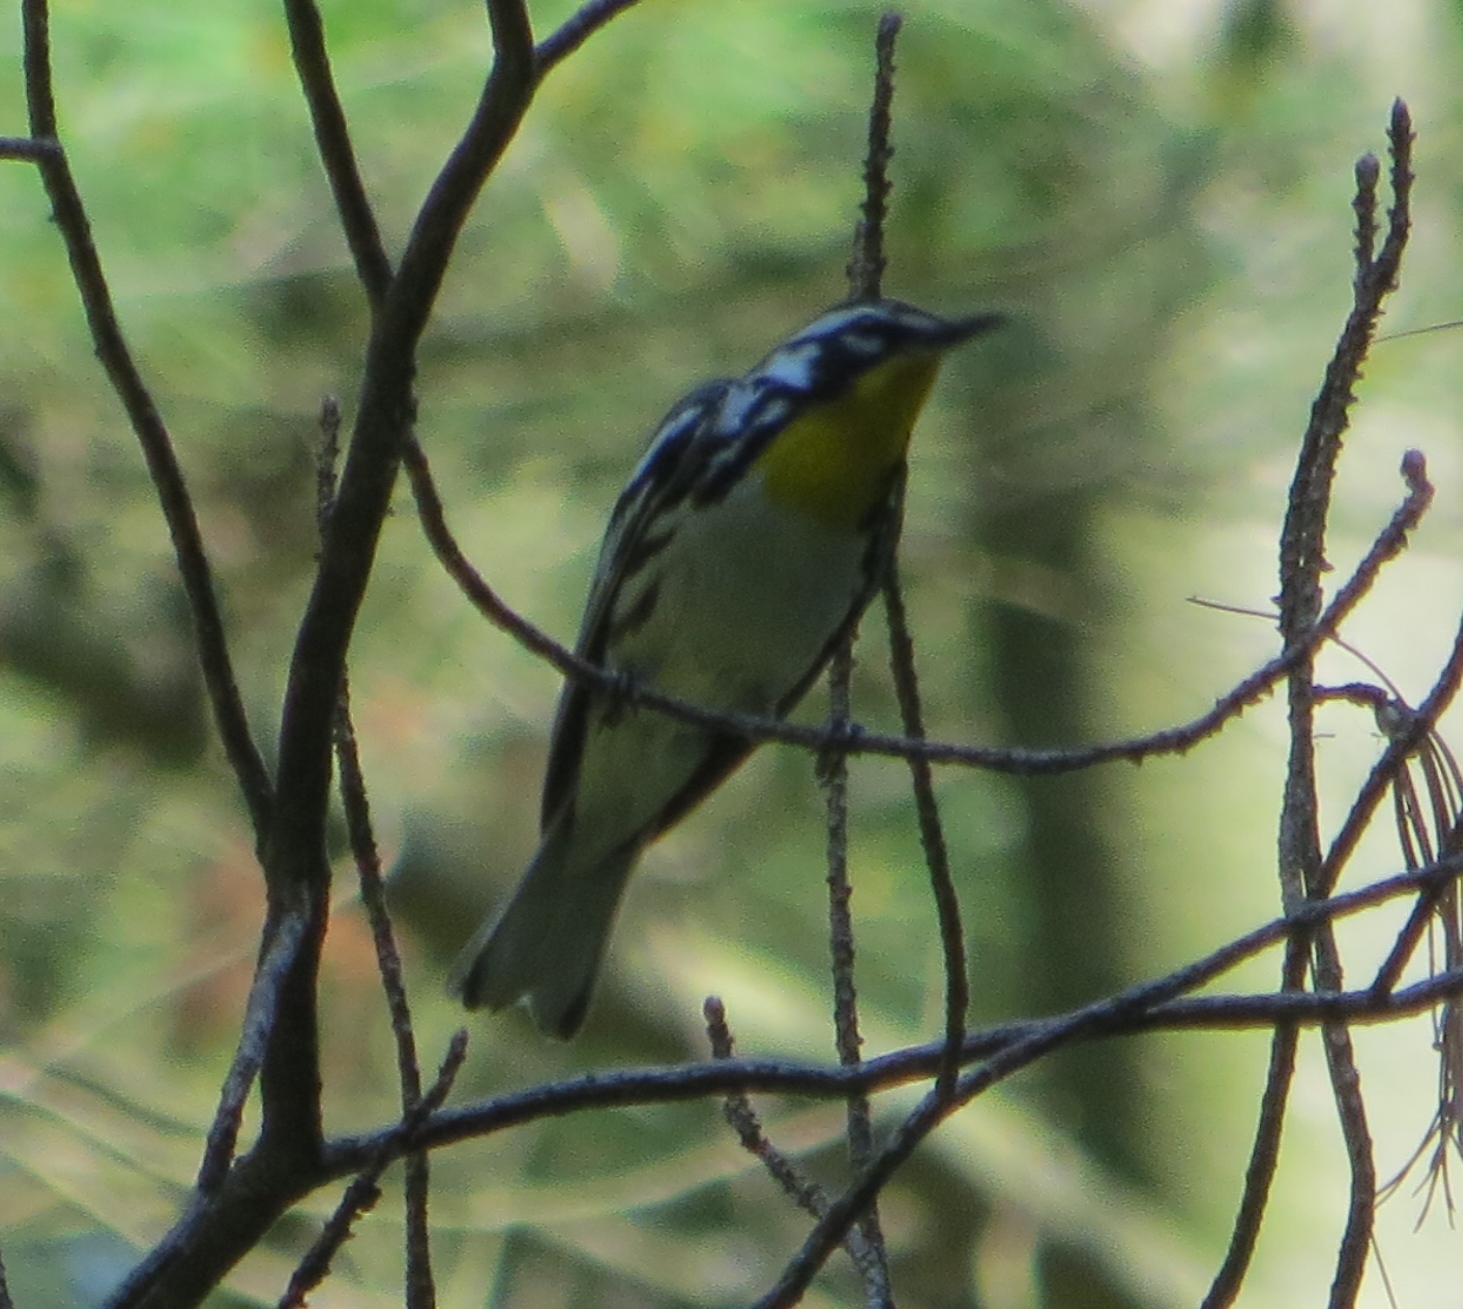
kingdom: Animalia
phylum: Chordata
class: Aves
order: Passeriformes
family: Parulidae
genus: Setophaga
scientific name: Setophaga dominica
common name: Yellow-throated warbler
